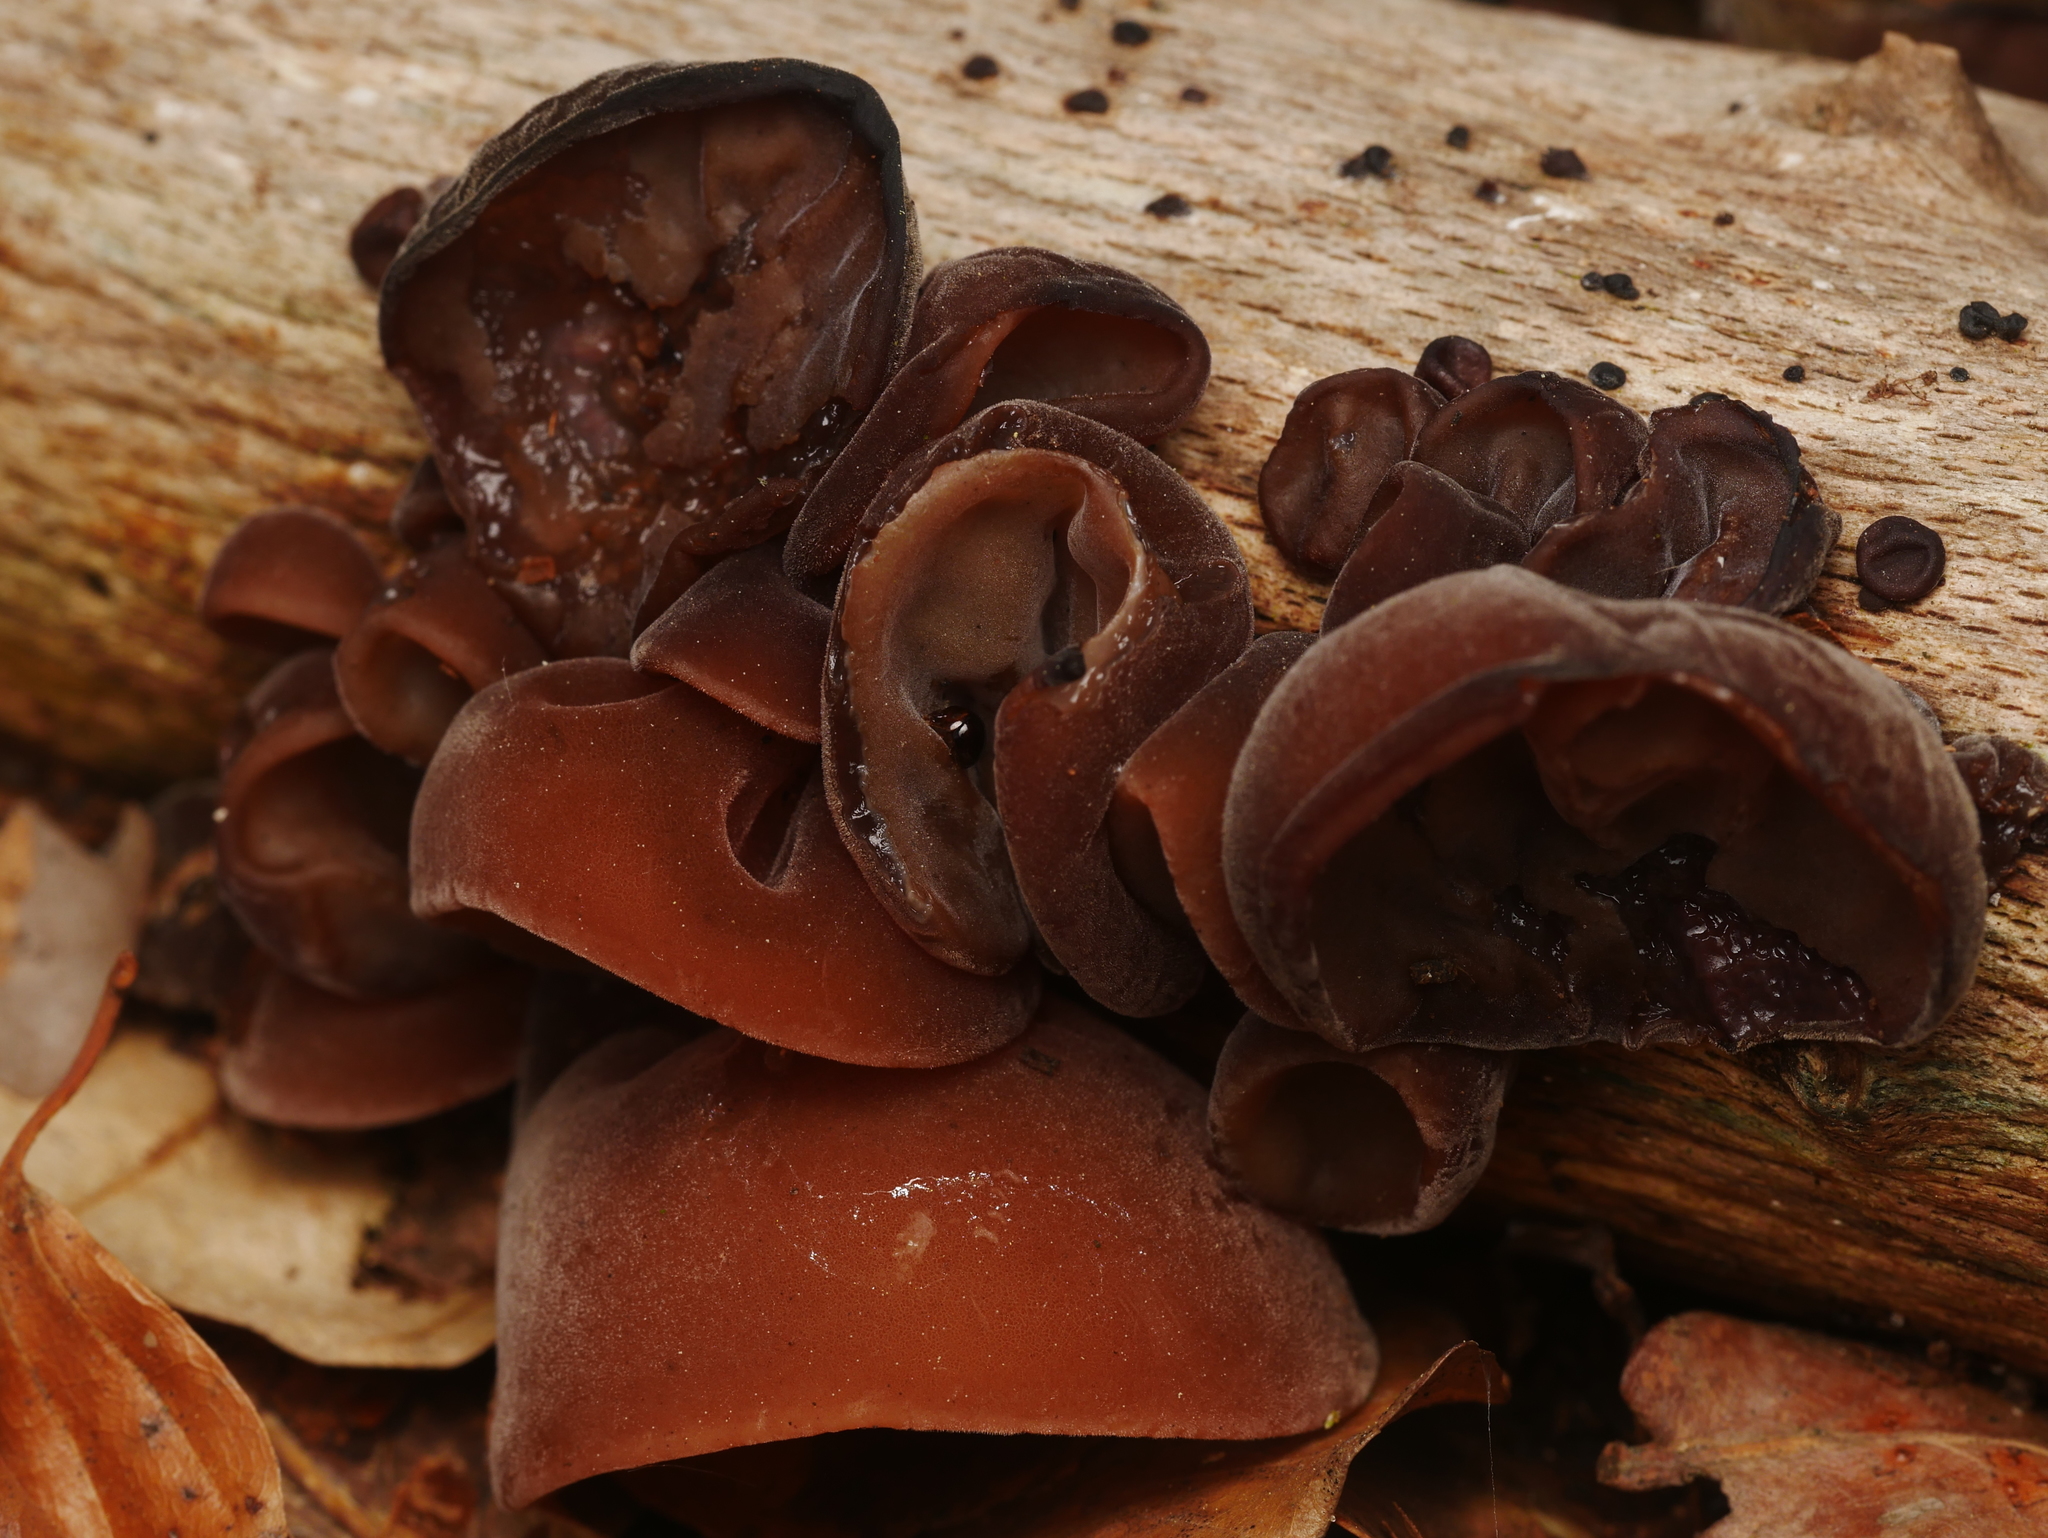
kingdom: Fungi
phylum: Basidiomycota
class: Agaricomycetes
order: Auriculariales
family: Auriculariaceae
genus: Auricularia
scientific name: Auricularia auricula-judae
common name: Jelly ear
